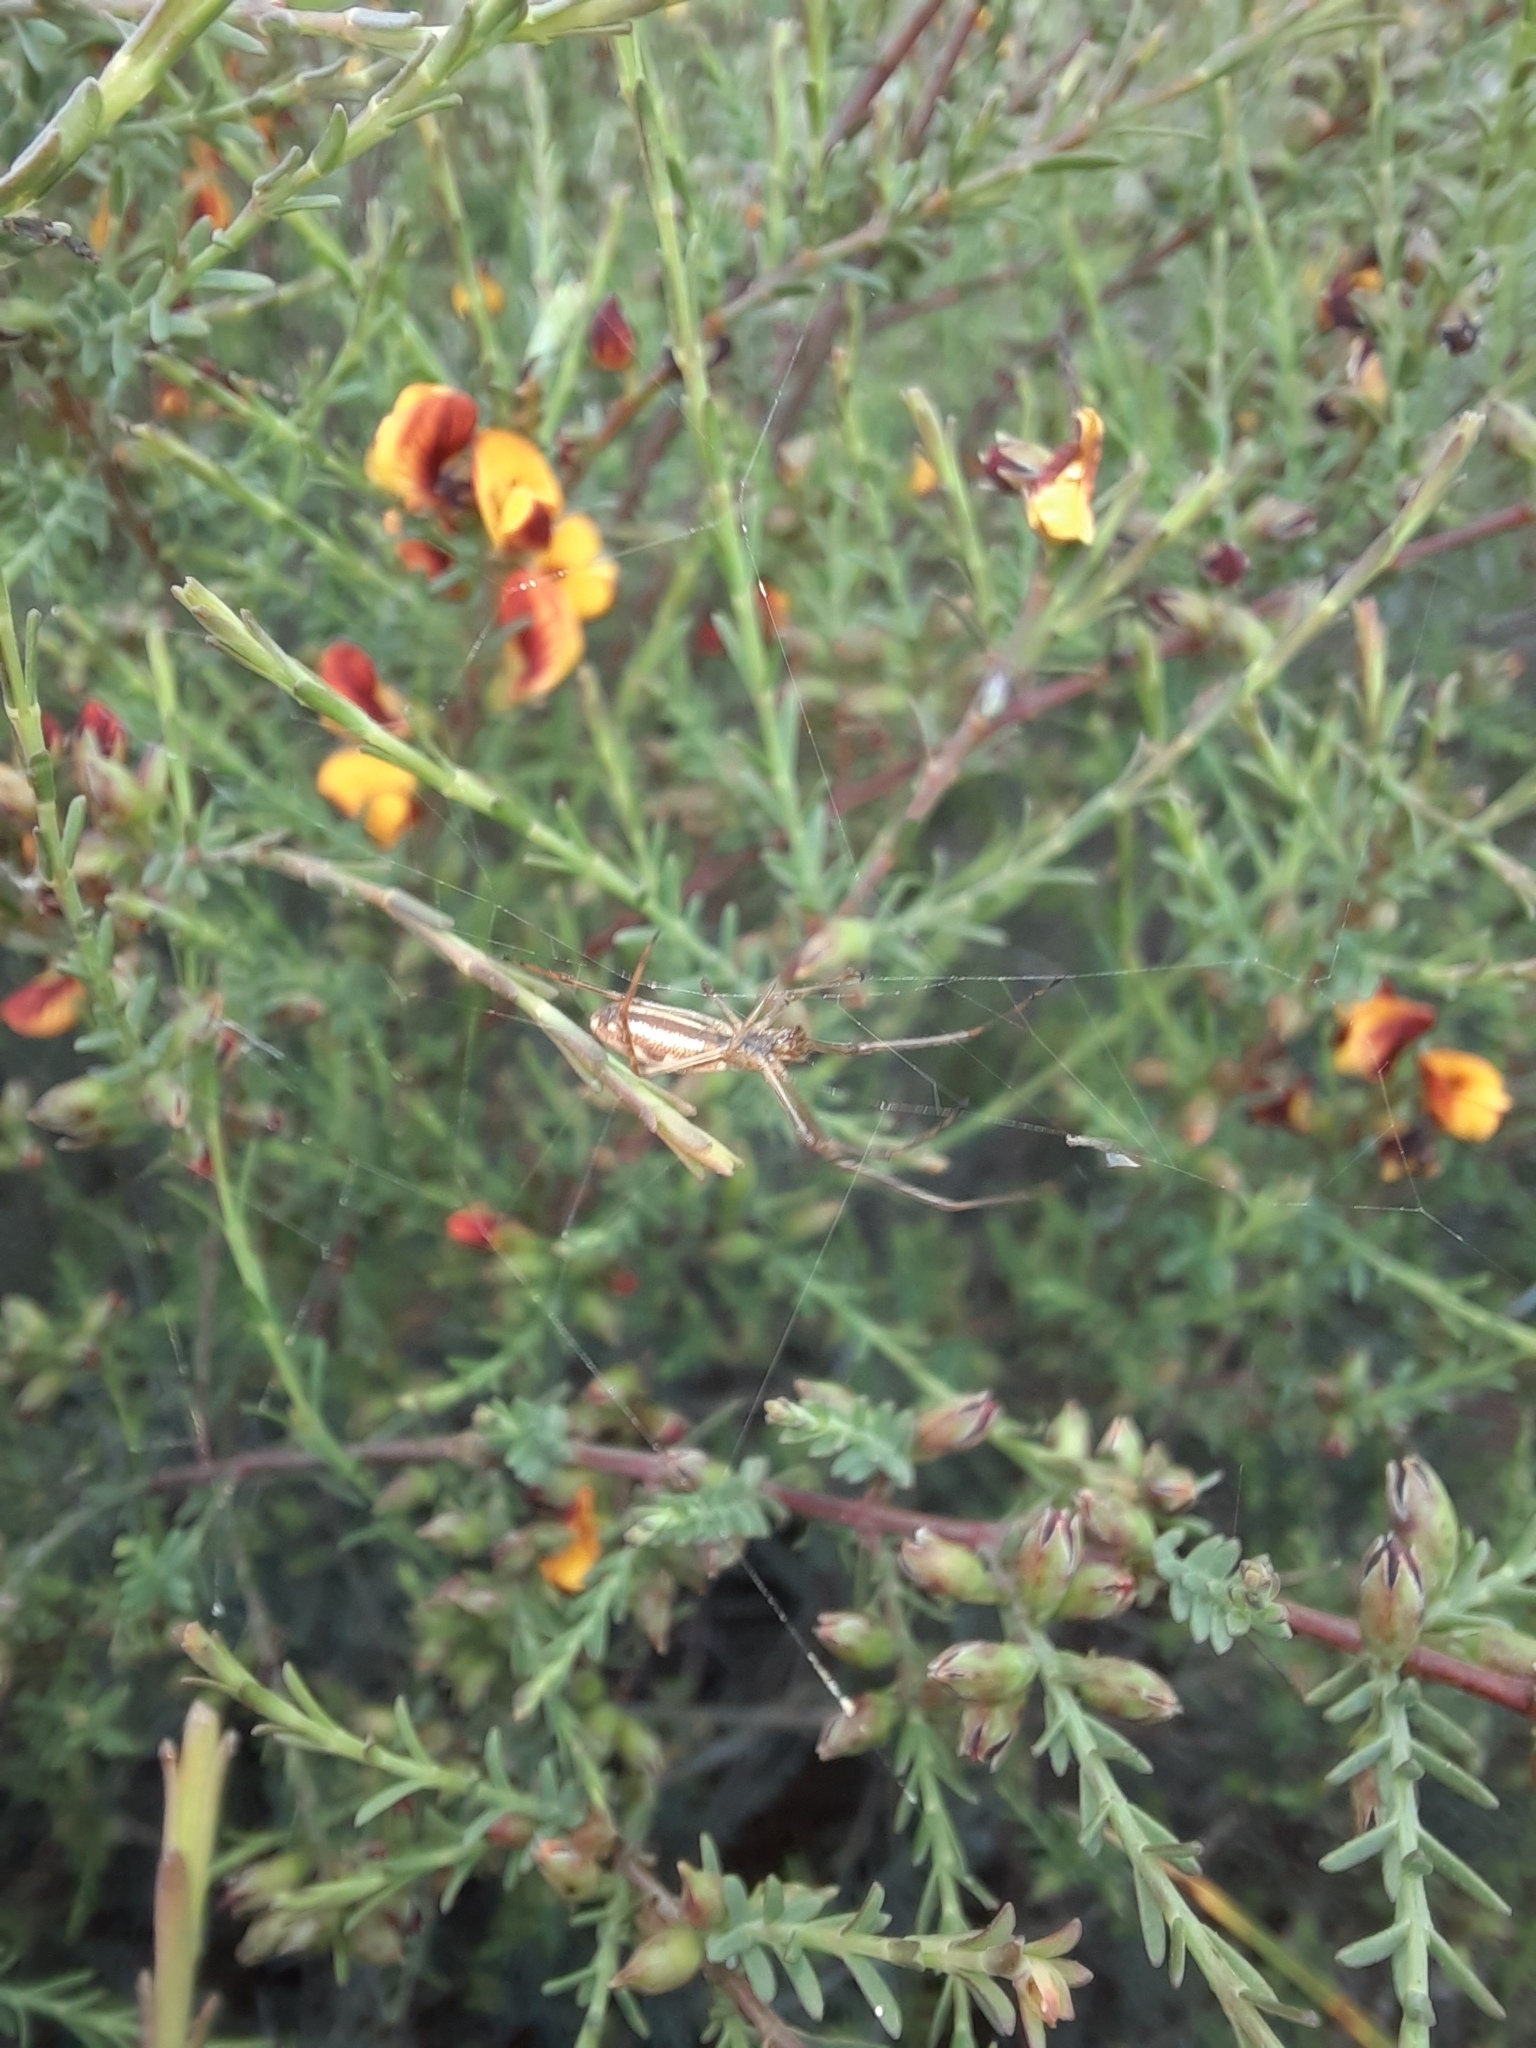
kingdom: Animalia
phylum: Arthropoda
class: Arachnida
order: Araneae
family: Araneidae
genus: Argiope
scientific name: Argiope protensa
